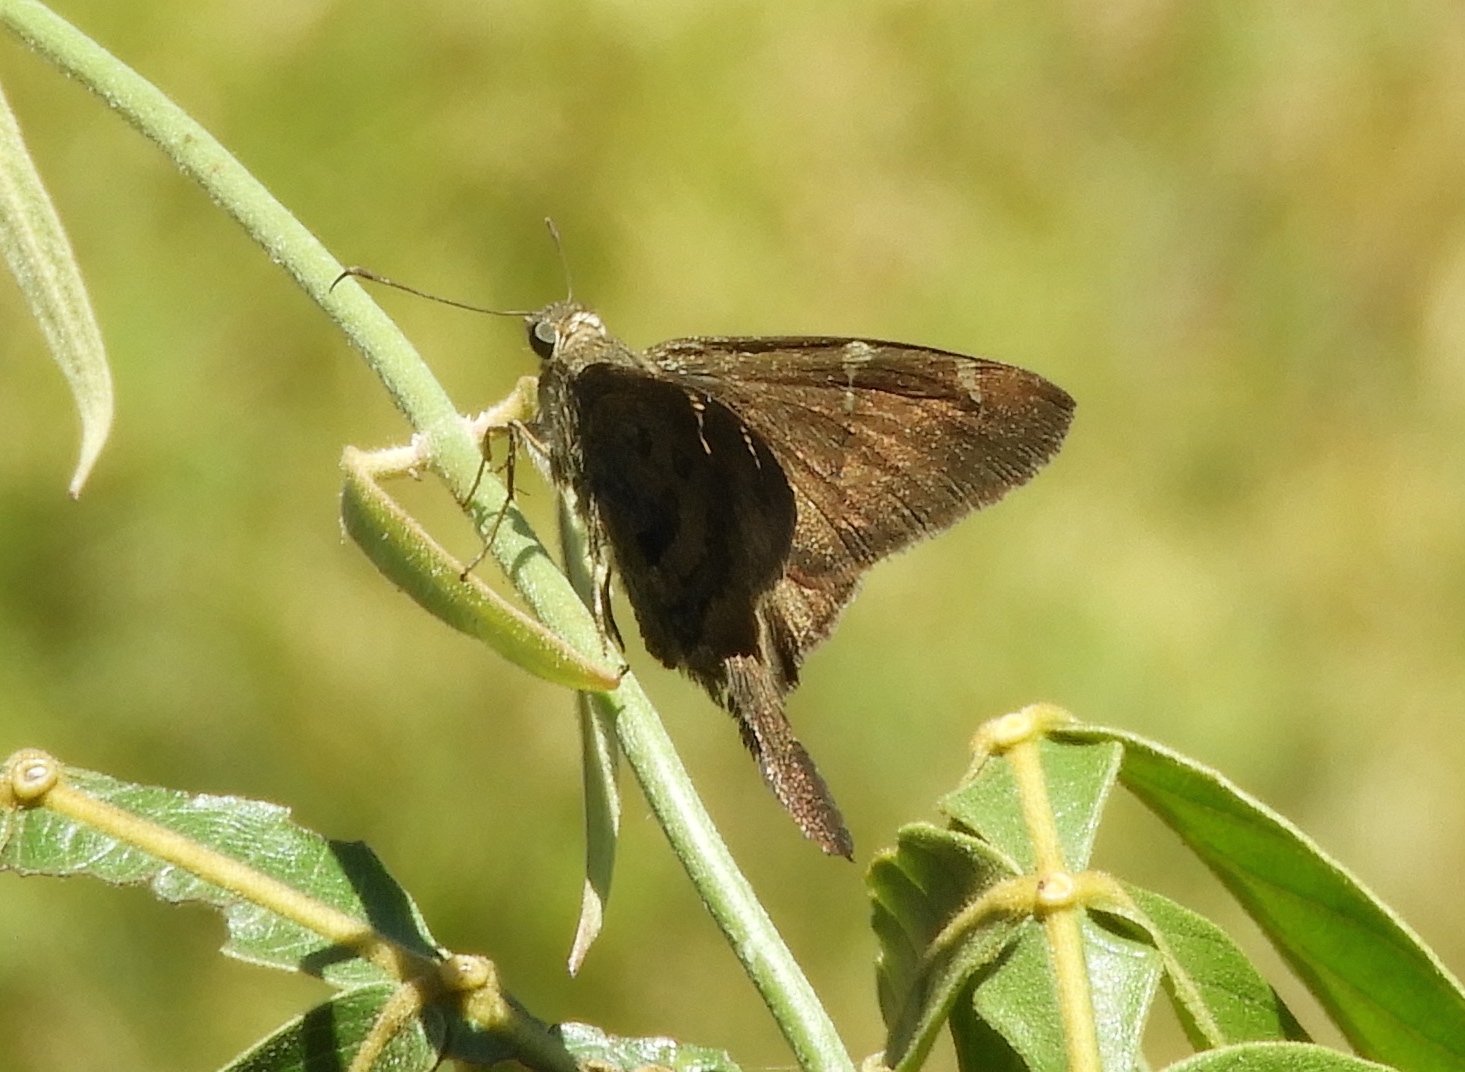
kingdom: Animalia
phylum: Arthropoda
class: Insecta
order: Lepidoptera
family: Hesperiidae
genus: Urbanus
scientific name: Urbanus procne
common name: Brown longtail
